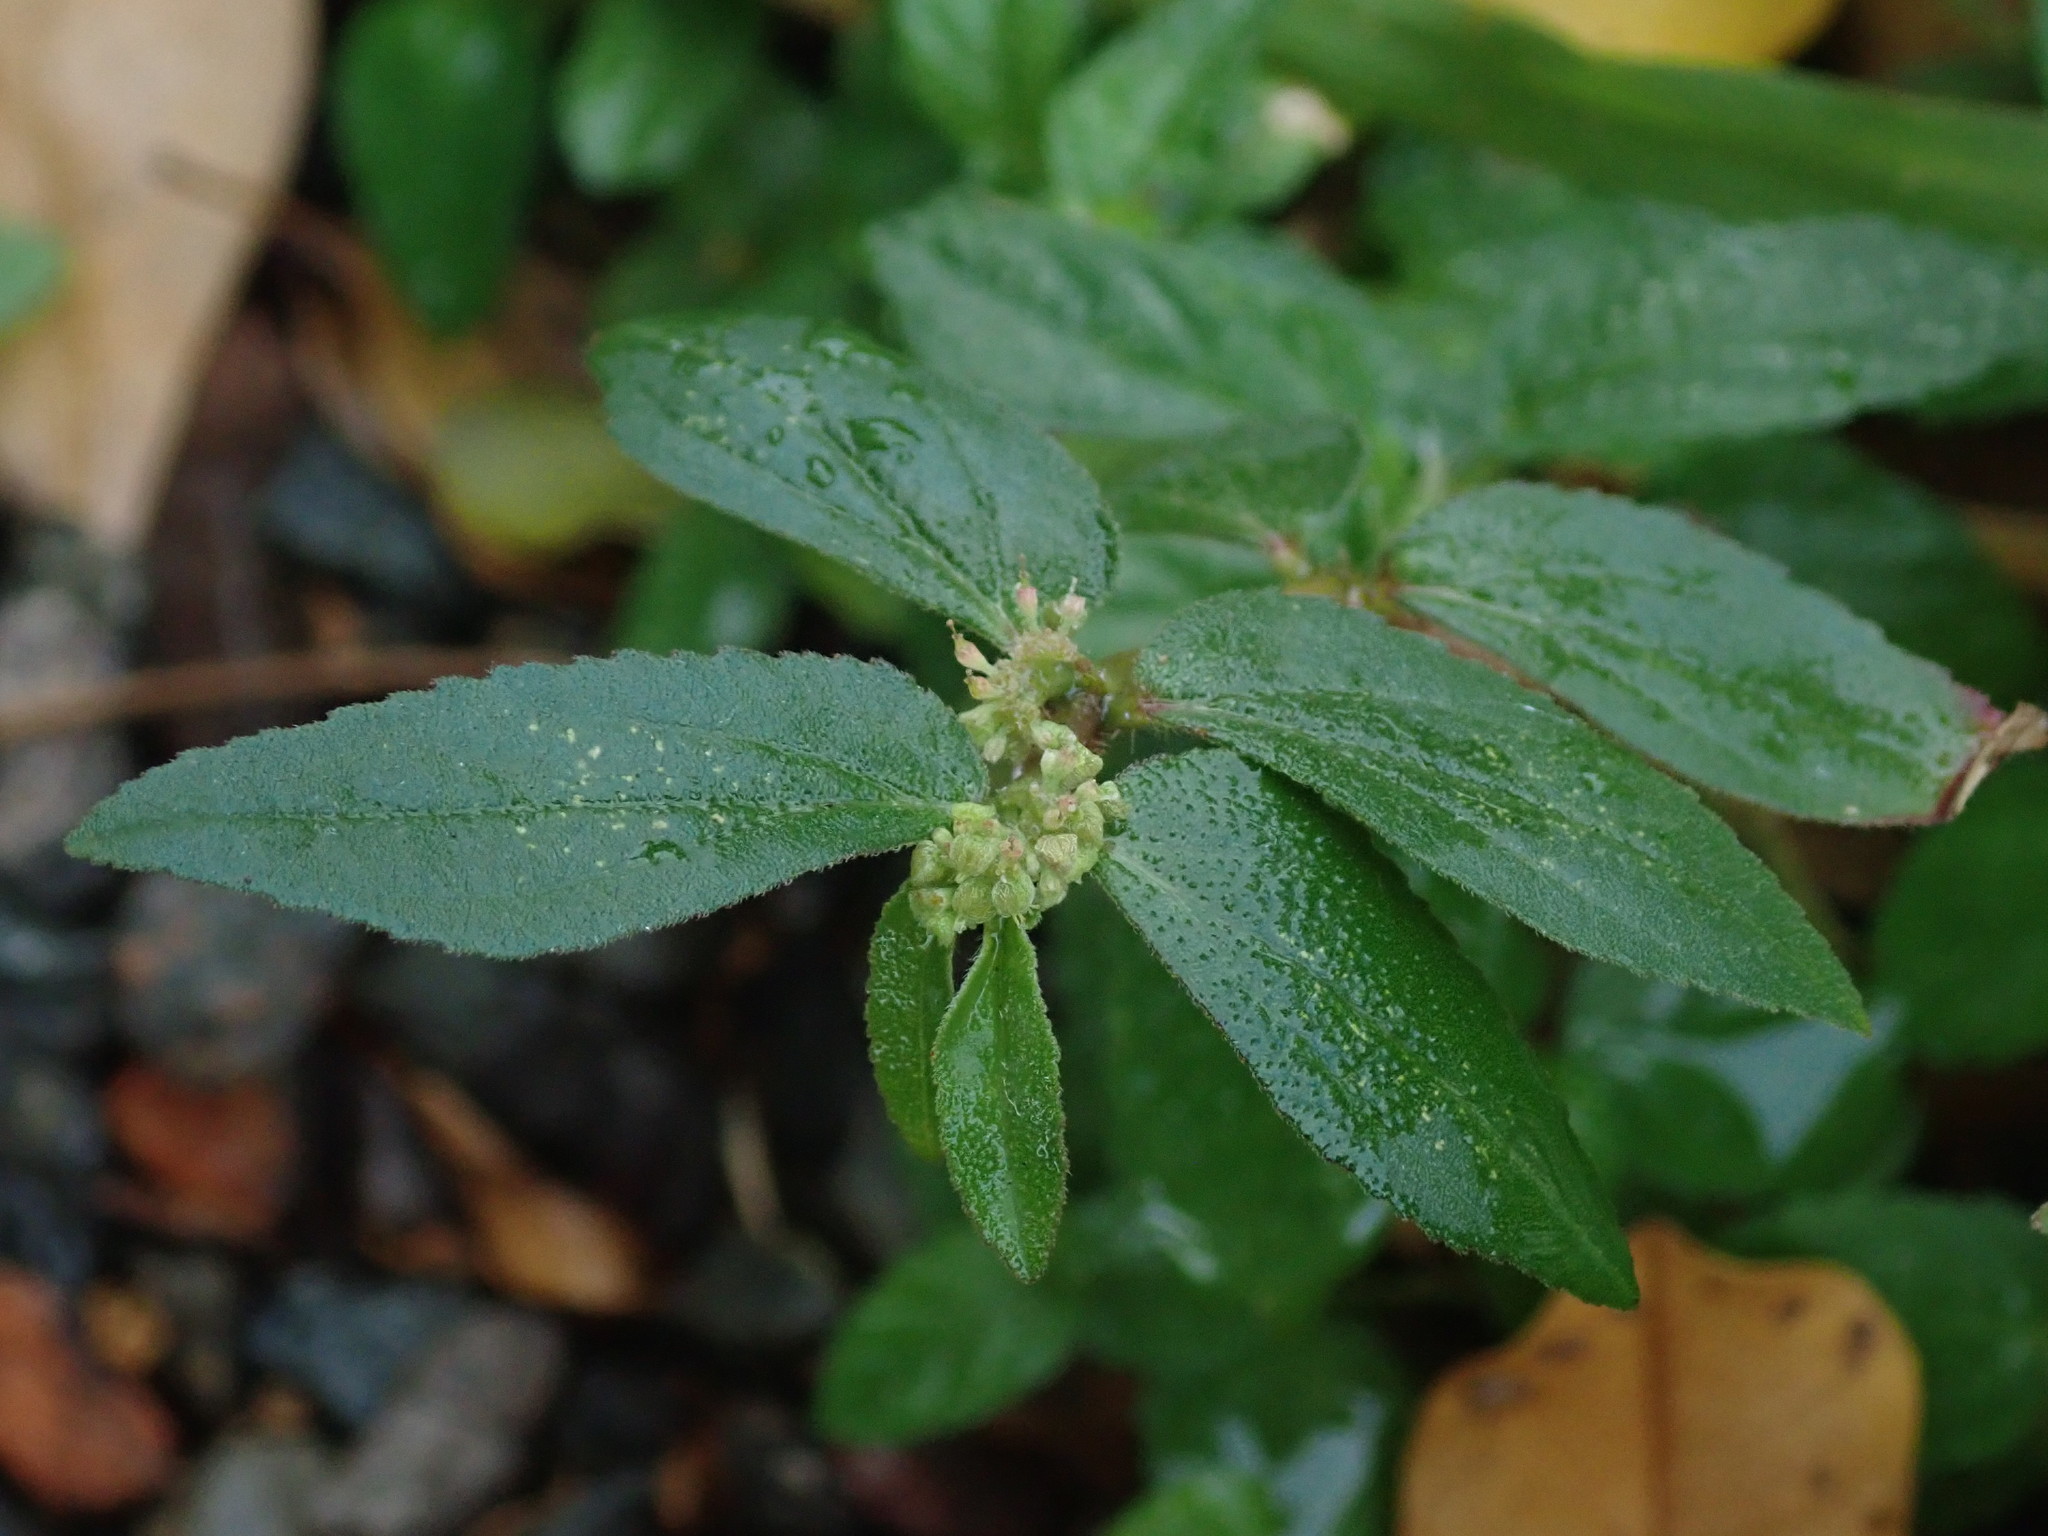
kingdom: Plantae
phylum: Tracheophyta
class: Magnoliopsida
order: Malpighiales
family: Euphorbiaceae
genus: Euphorbia
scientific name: Euphorbia hirta
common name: Pillpod sandmat
